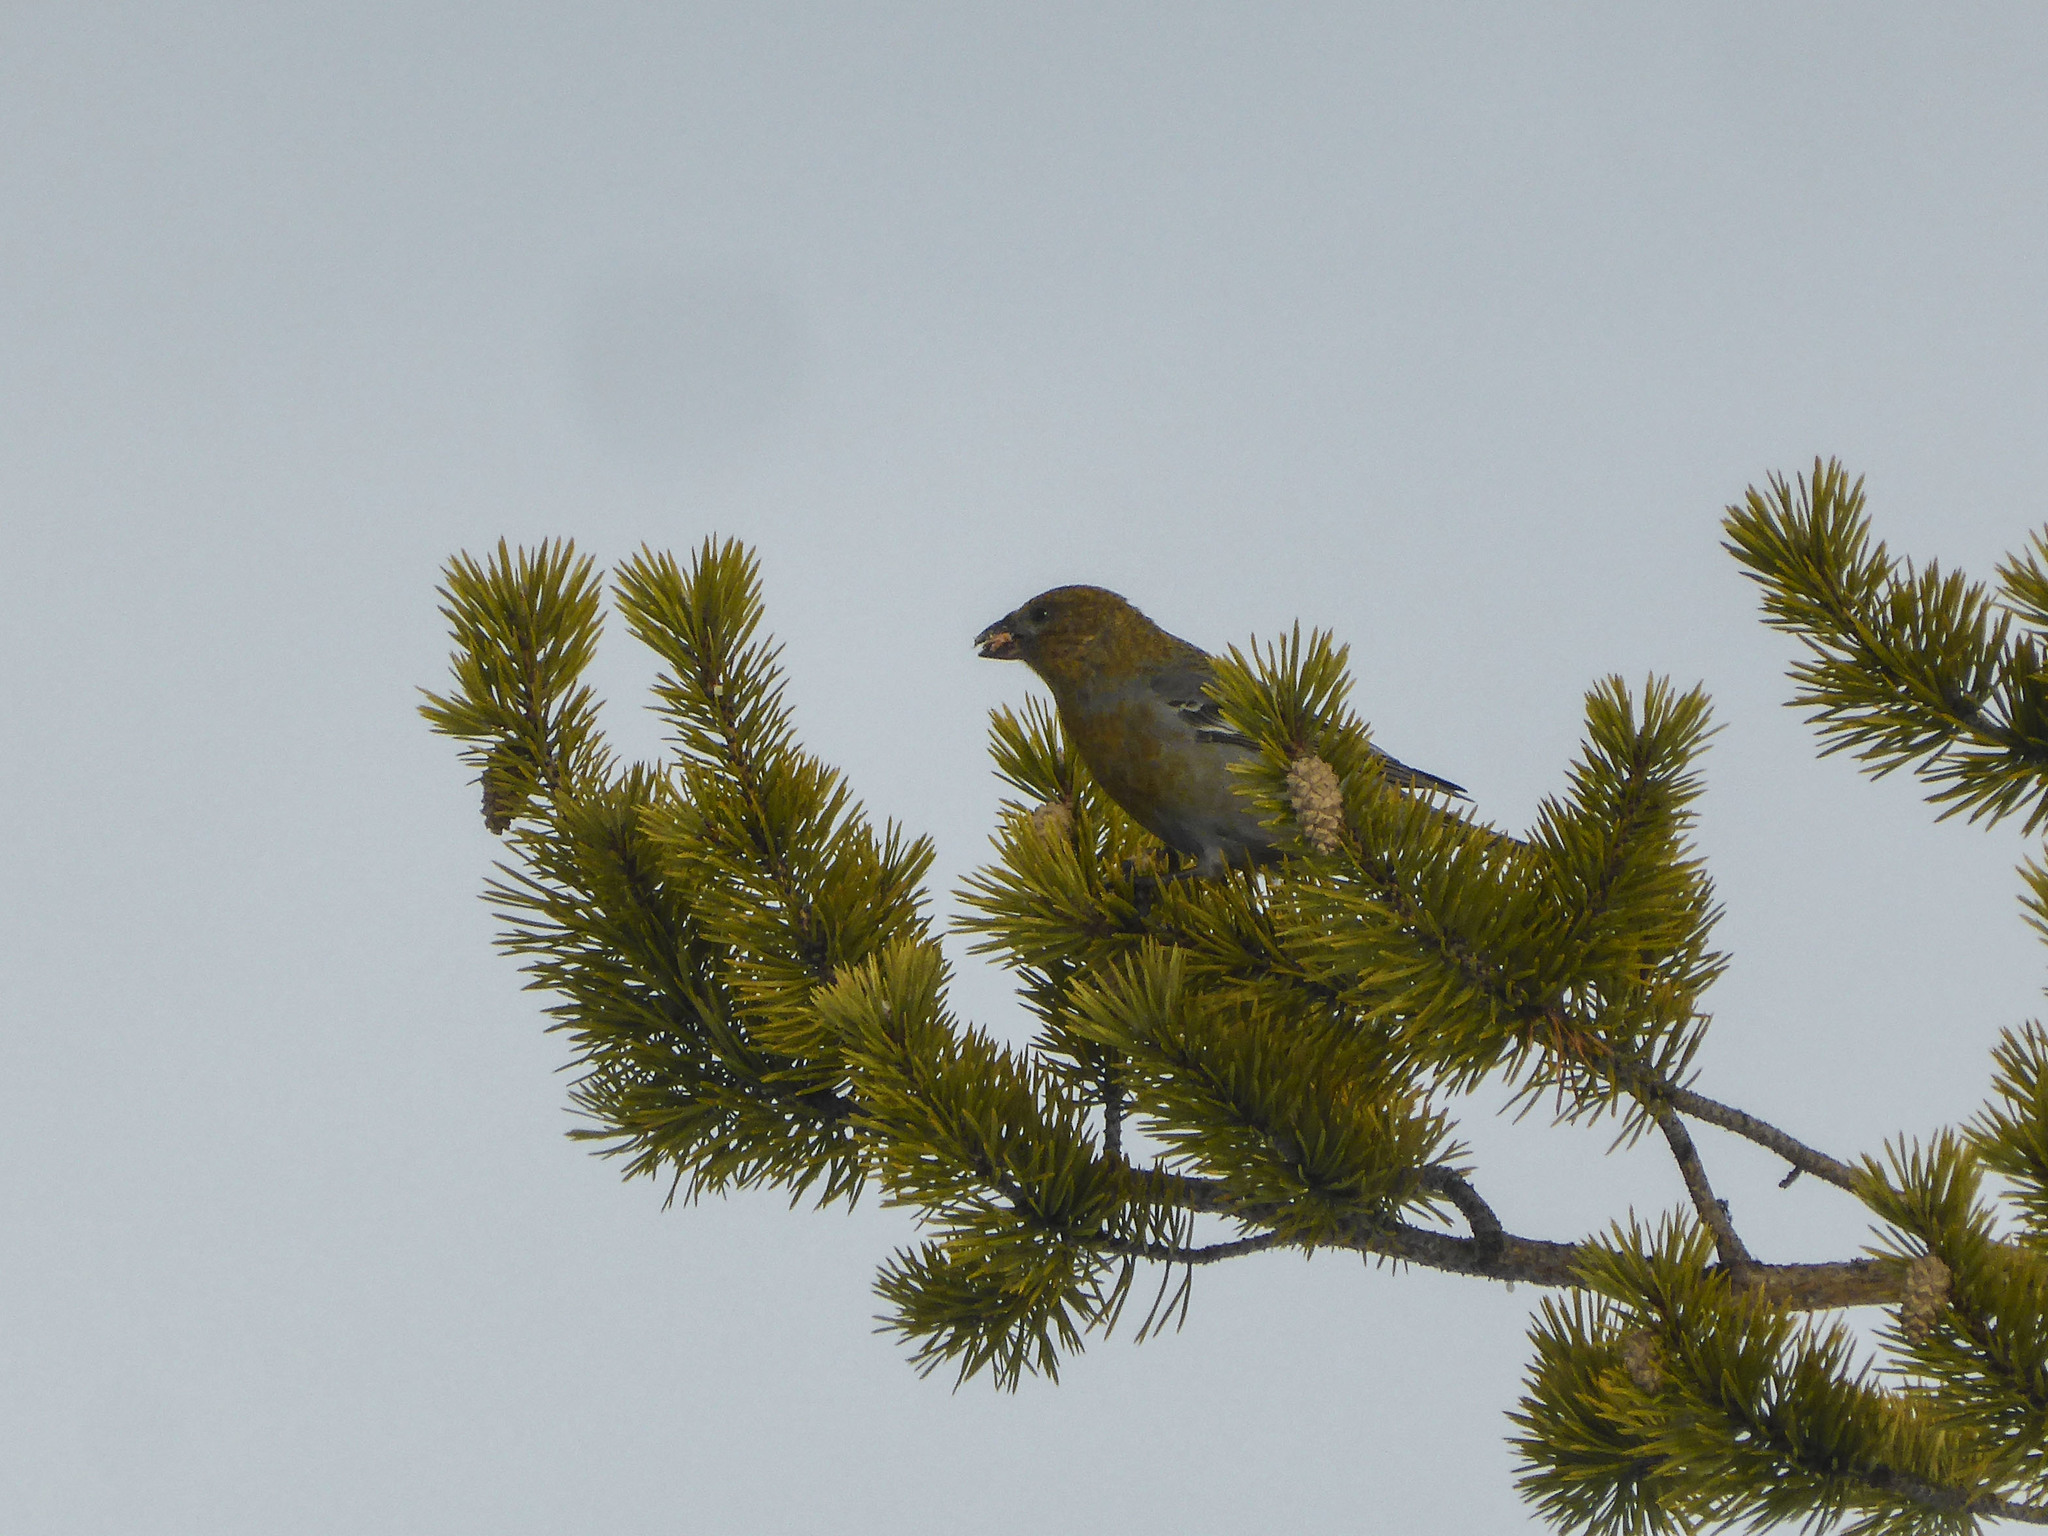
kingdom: Animalia
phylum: Chordata
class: Aves
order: Passeriformes
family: Fringillidae
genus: Pinicola
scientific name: Pinicola enucleator
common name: Pine grosbeak
